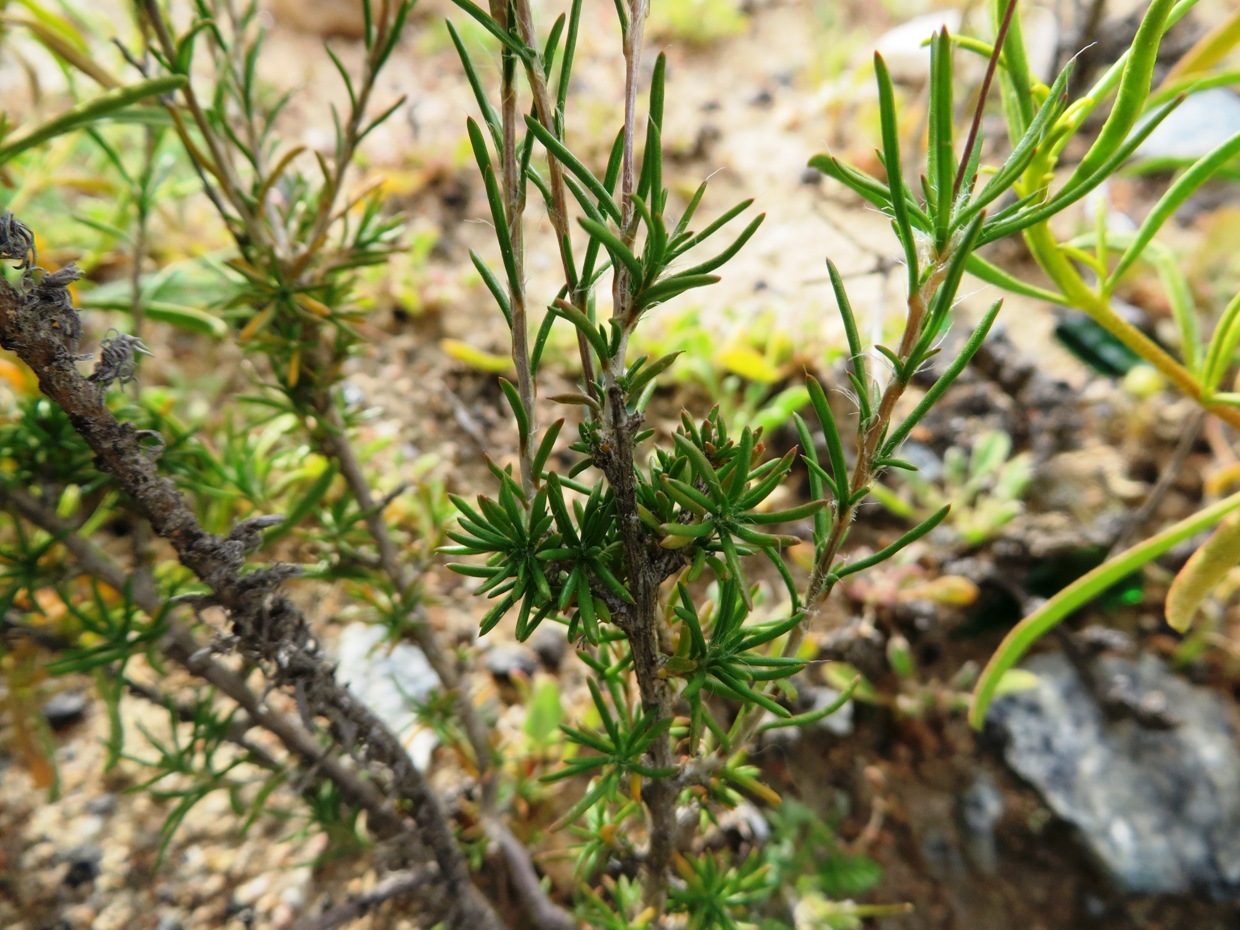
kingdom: Plantae
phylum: Tracheophyta
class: Magnoliopsida
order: Caryophyllales
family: Molluginaceae
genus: Pharnaceum
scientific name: Pharnaceum aurantium
